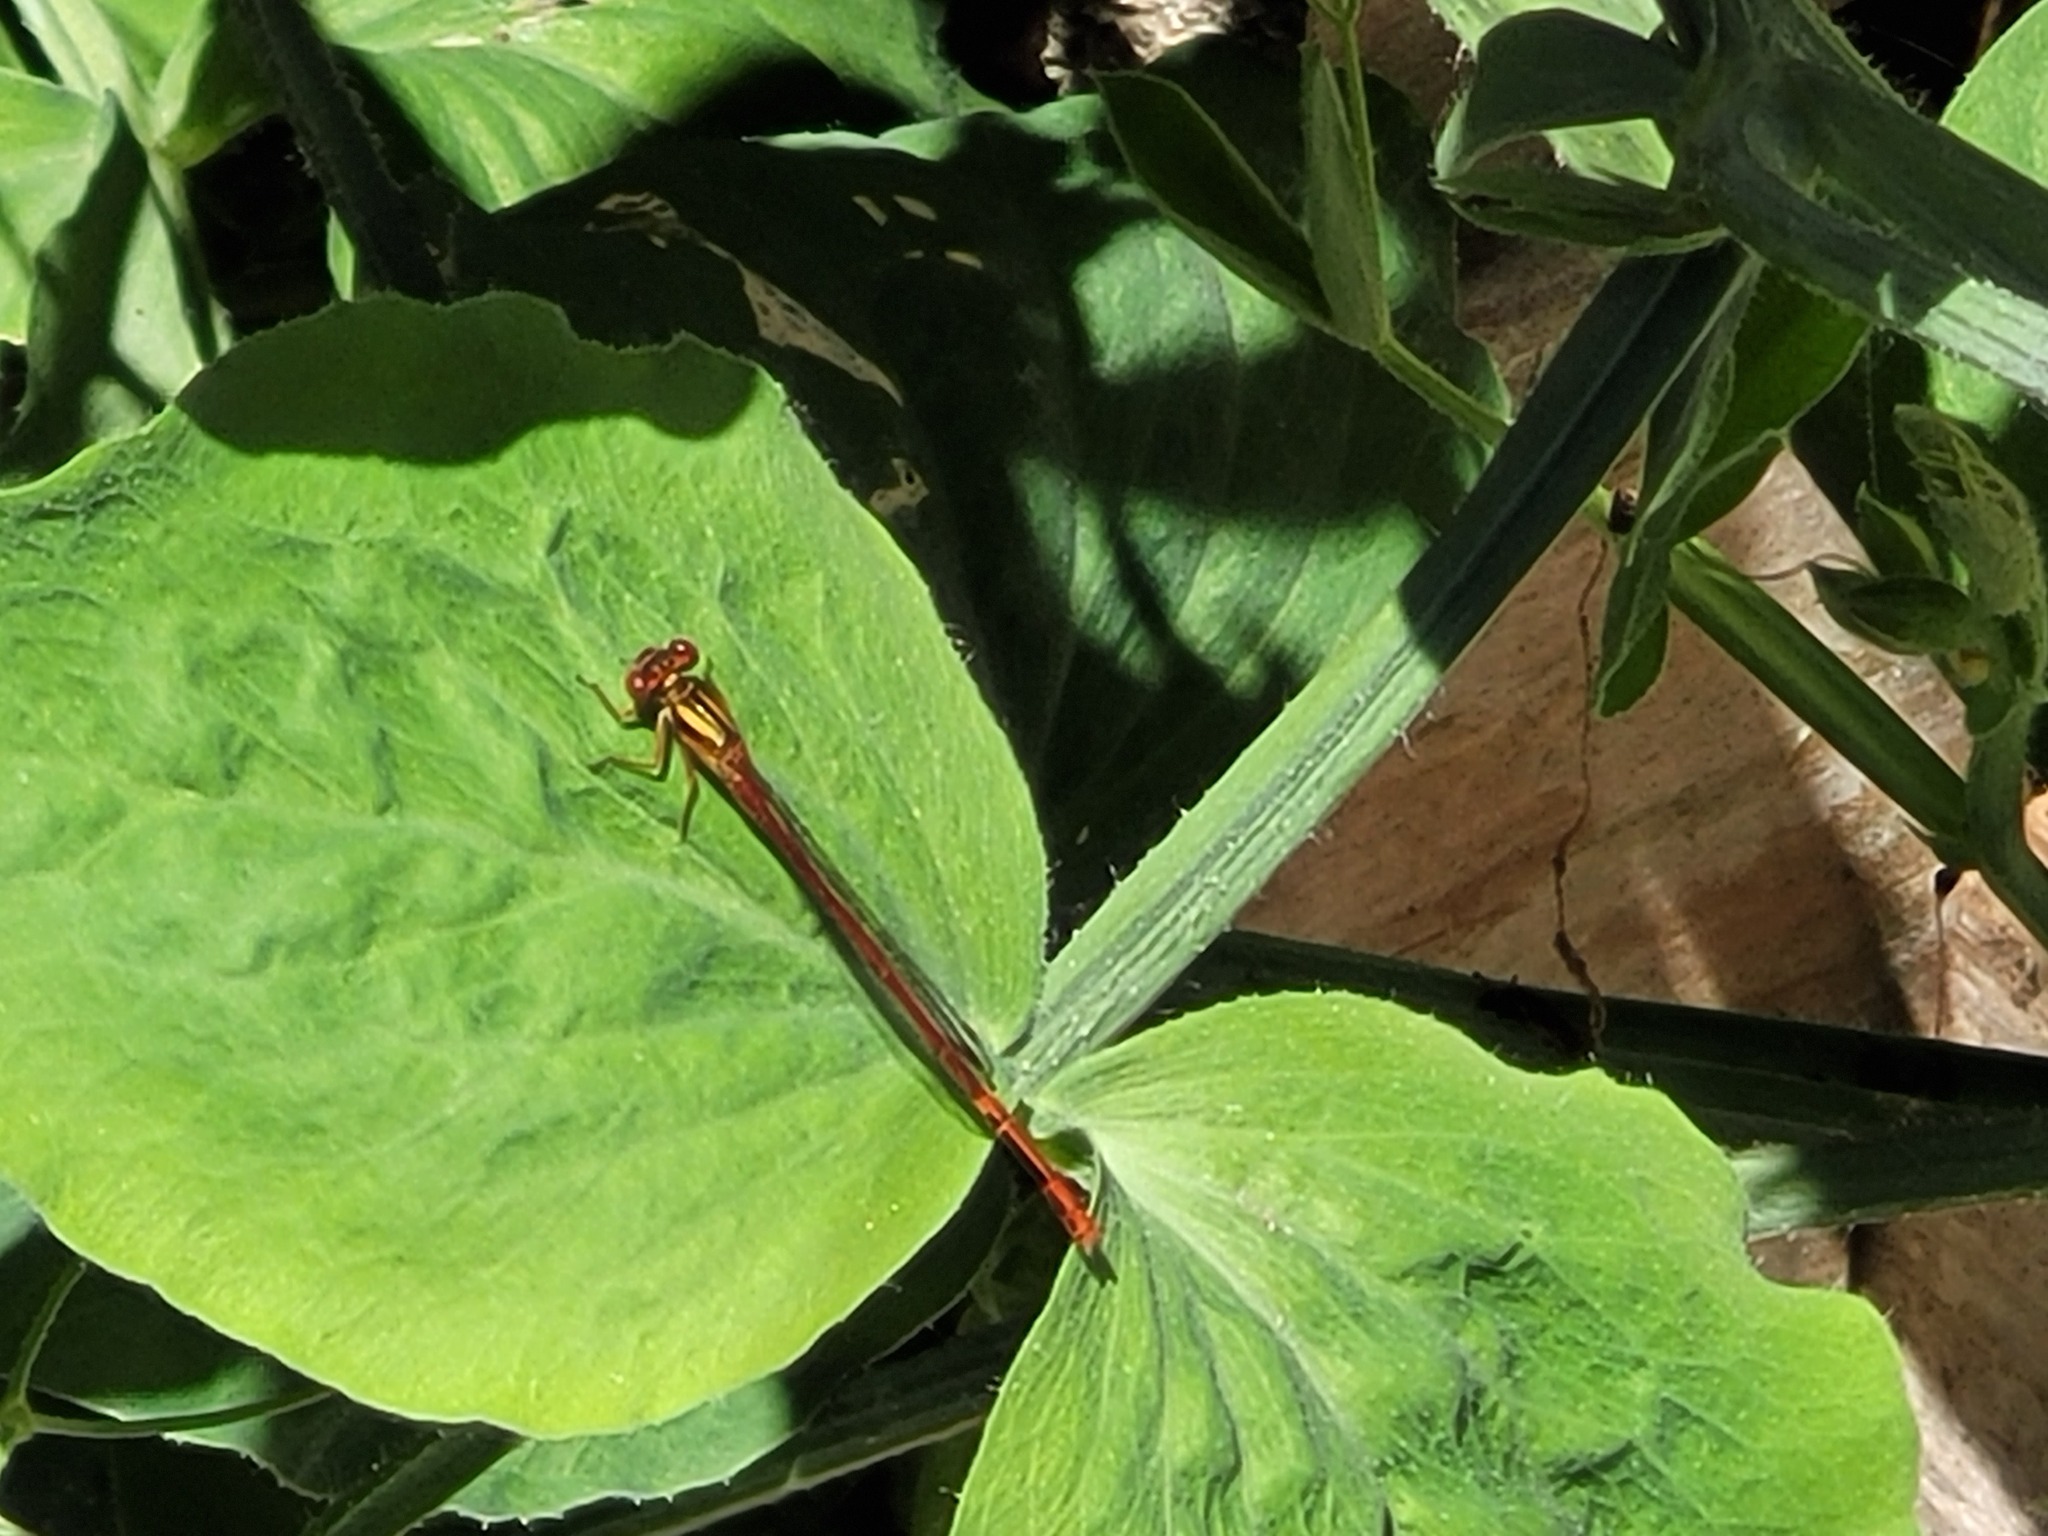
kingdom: Animalia
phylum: Arthropoda
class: Insecta
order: Odonata
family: Coenagrionidae
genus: Xanthocnemis
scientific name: Xanthocnemis zealandica
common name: Common redcoat damselfly
